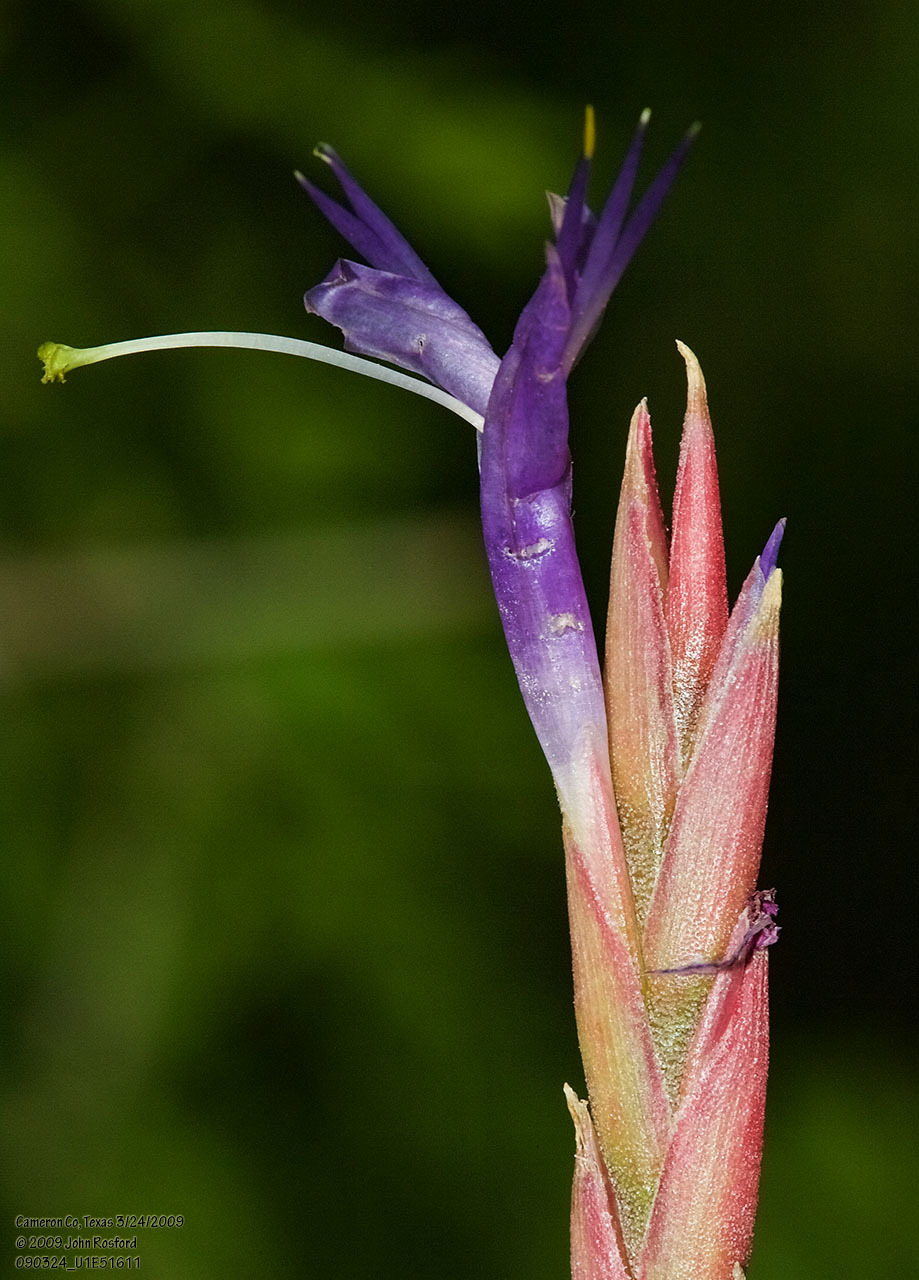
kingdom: Plantae
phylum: Tracheophyta
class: Liliopsida
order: Poales
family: Bromeliaceae
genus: Tillandsia
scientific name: Tillandsia baileyi
